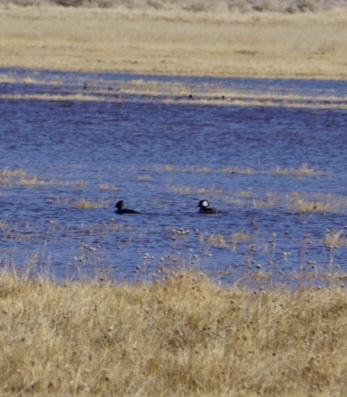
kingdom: Animalia
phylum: Chordata
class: Aves
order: Anseriformes
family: Anatidae
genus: Lophodytes
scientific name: Lophodytes cucullatus
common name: Hooded merganser
